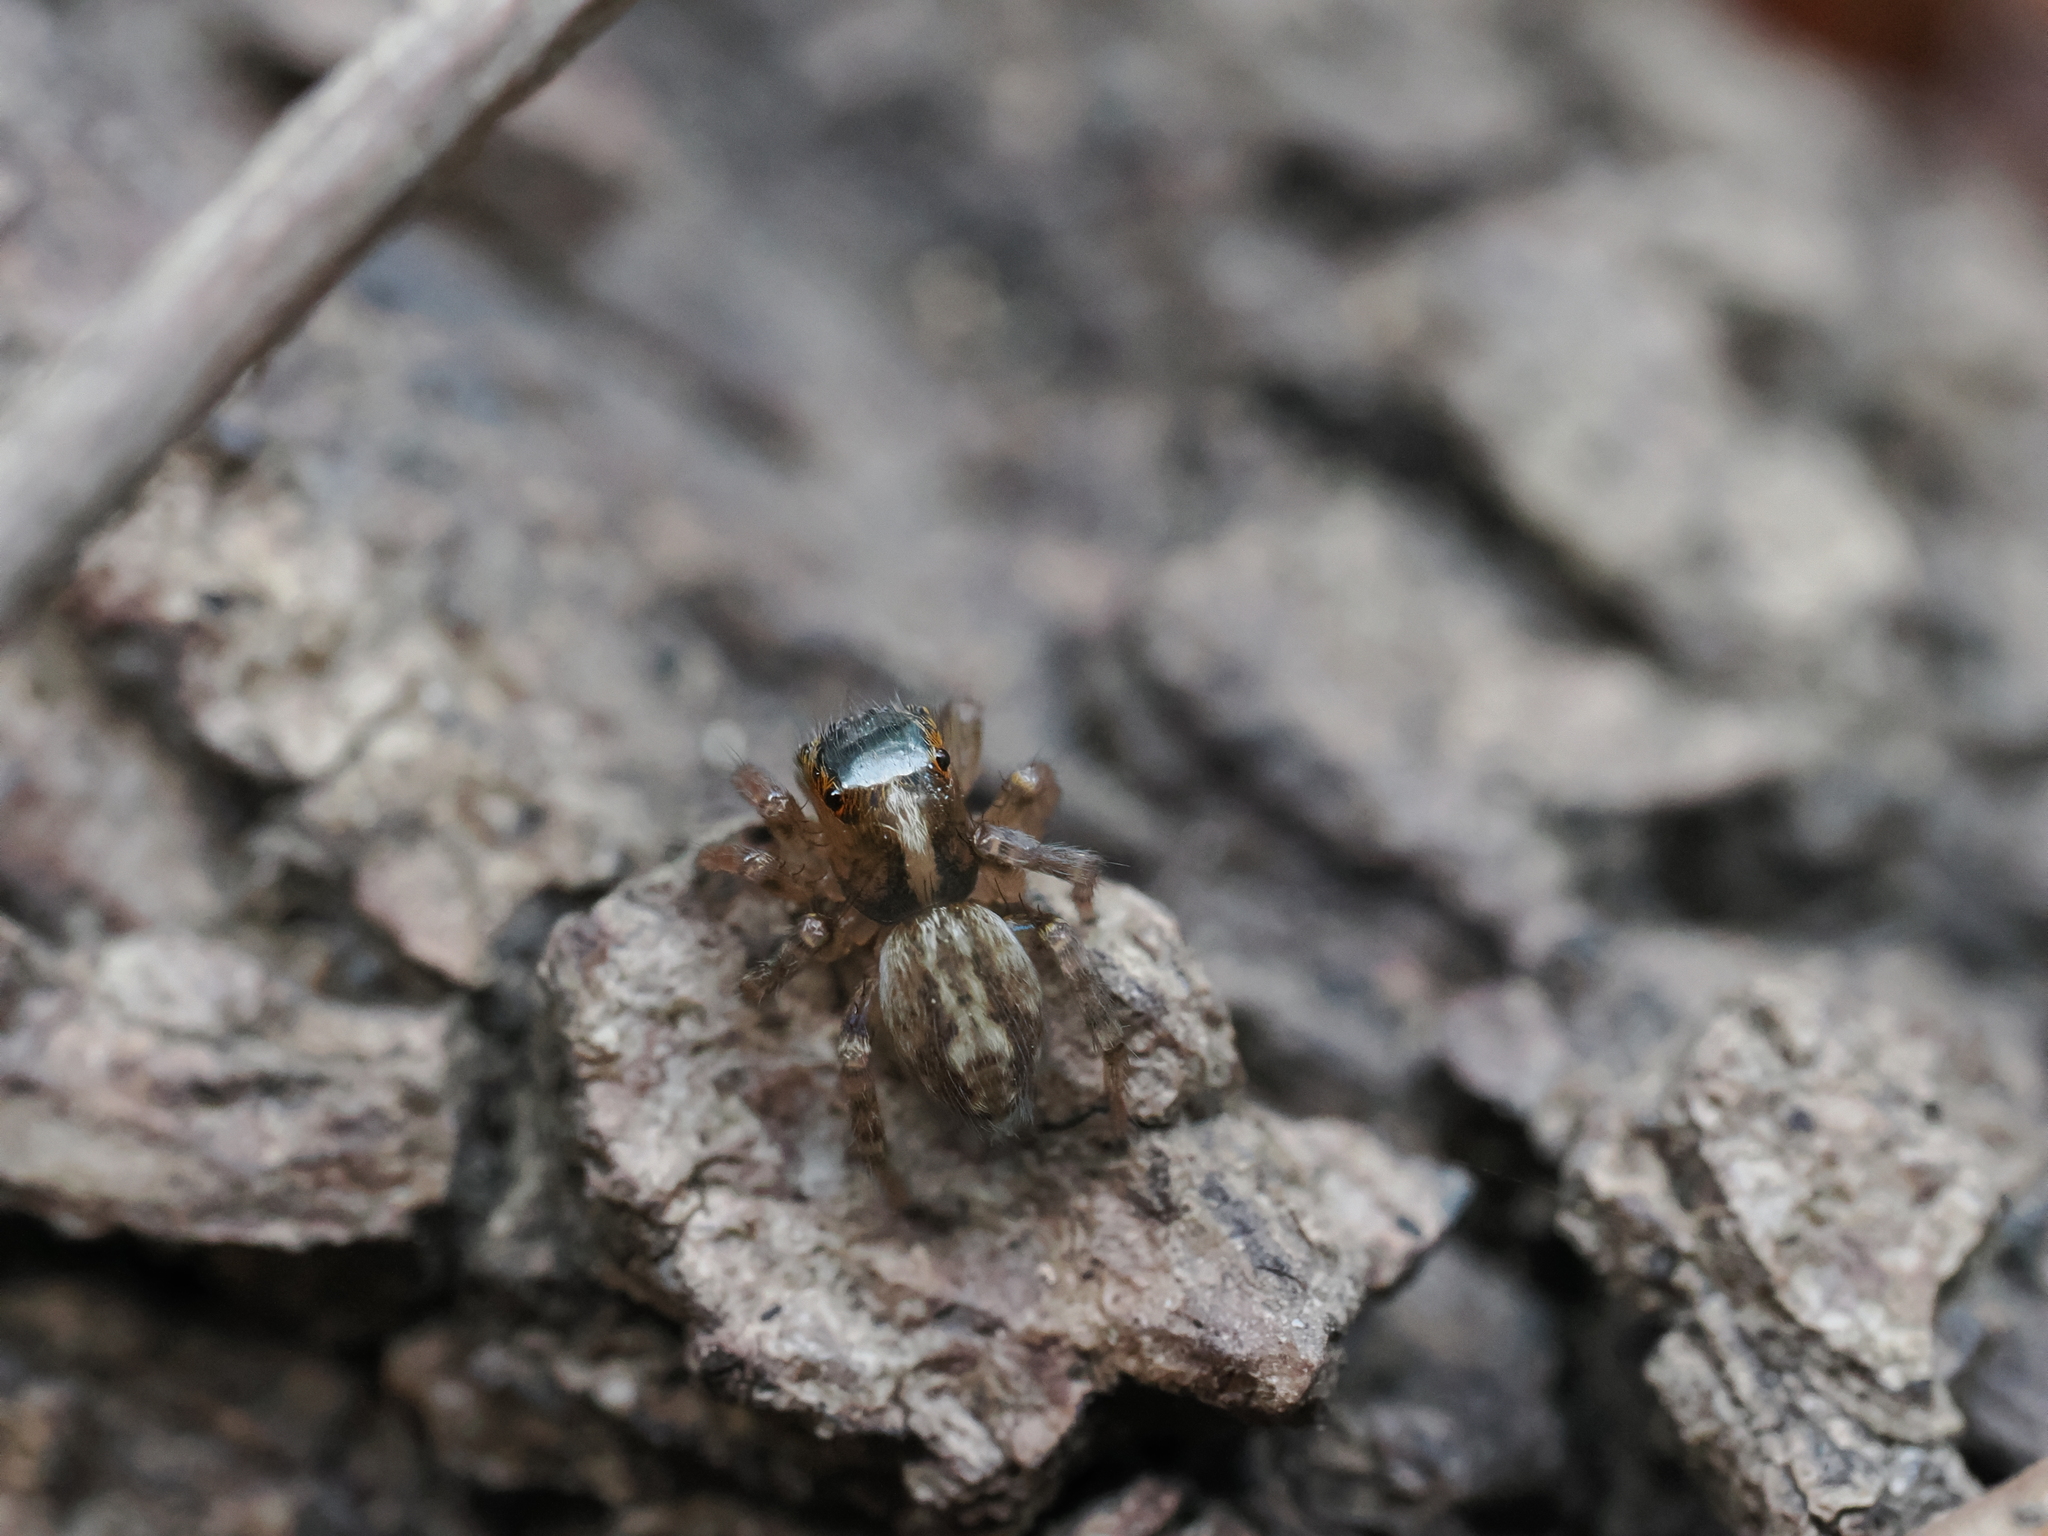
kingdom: Animalia
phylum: Arthropoda
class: Arachnida
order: Araneae
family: Salticidae
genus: Saitis
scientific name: Saitis barbipes
